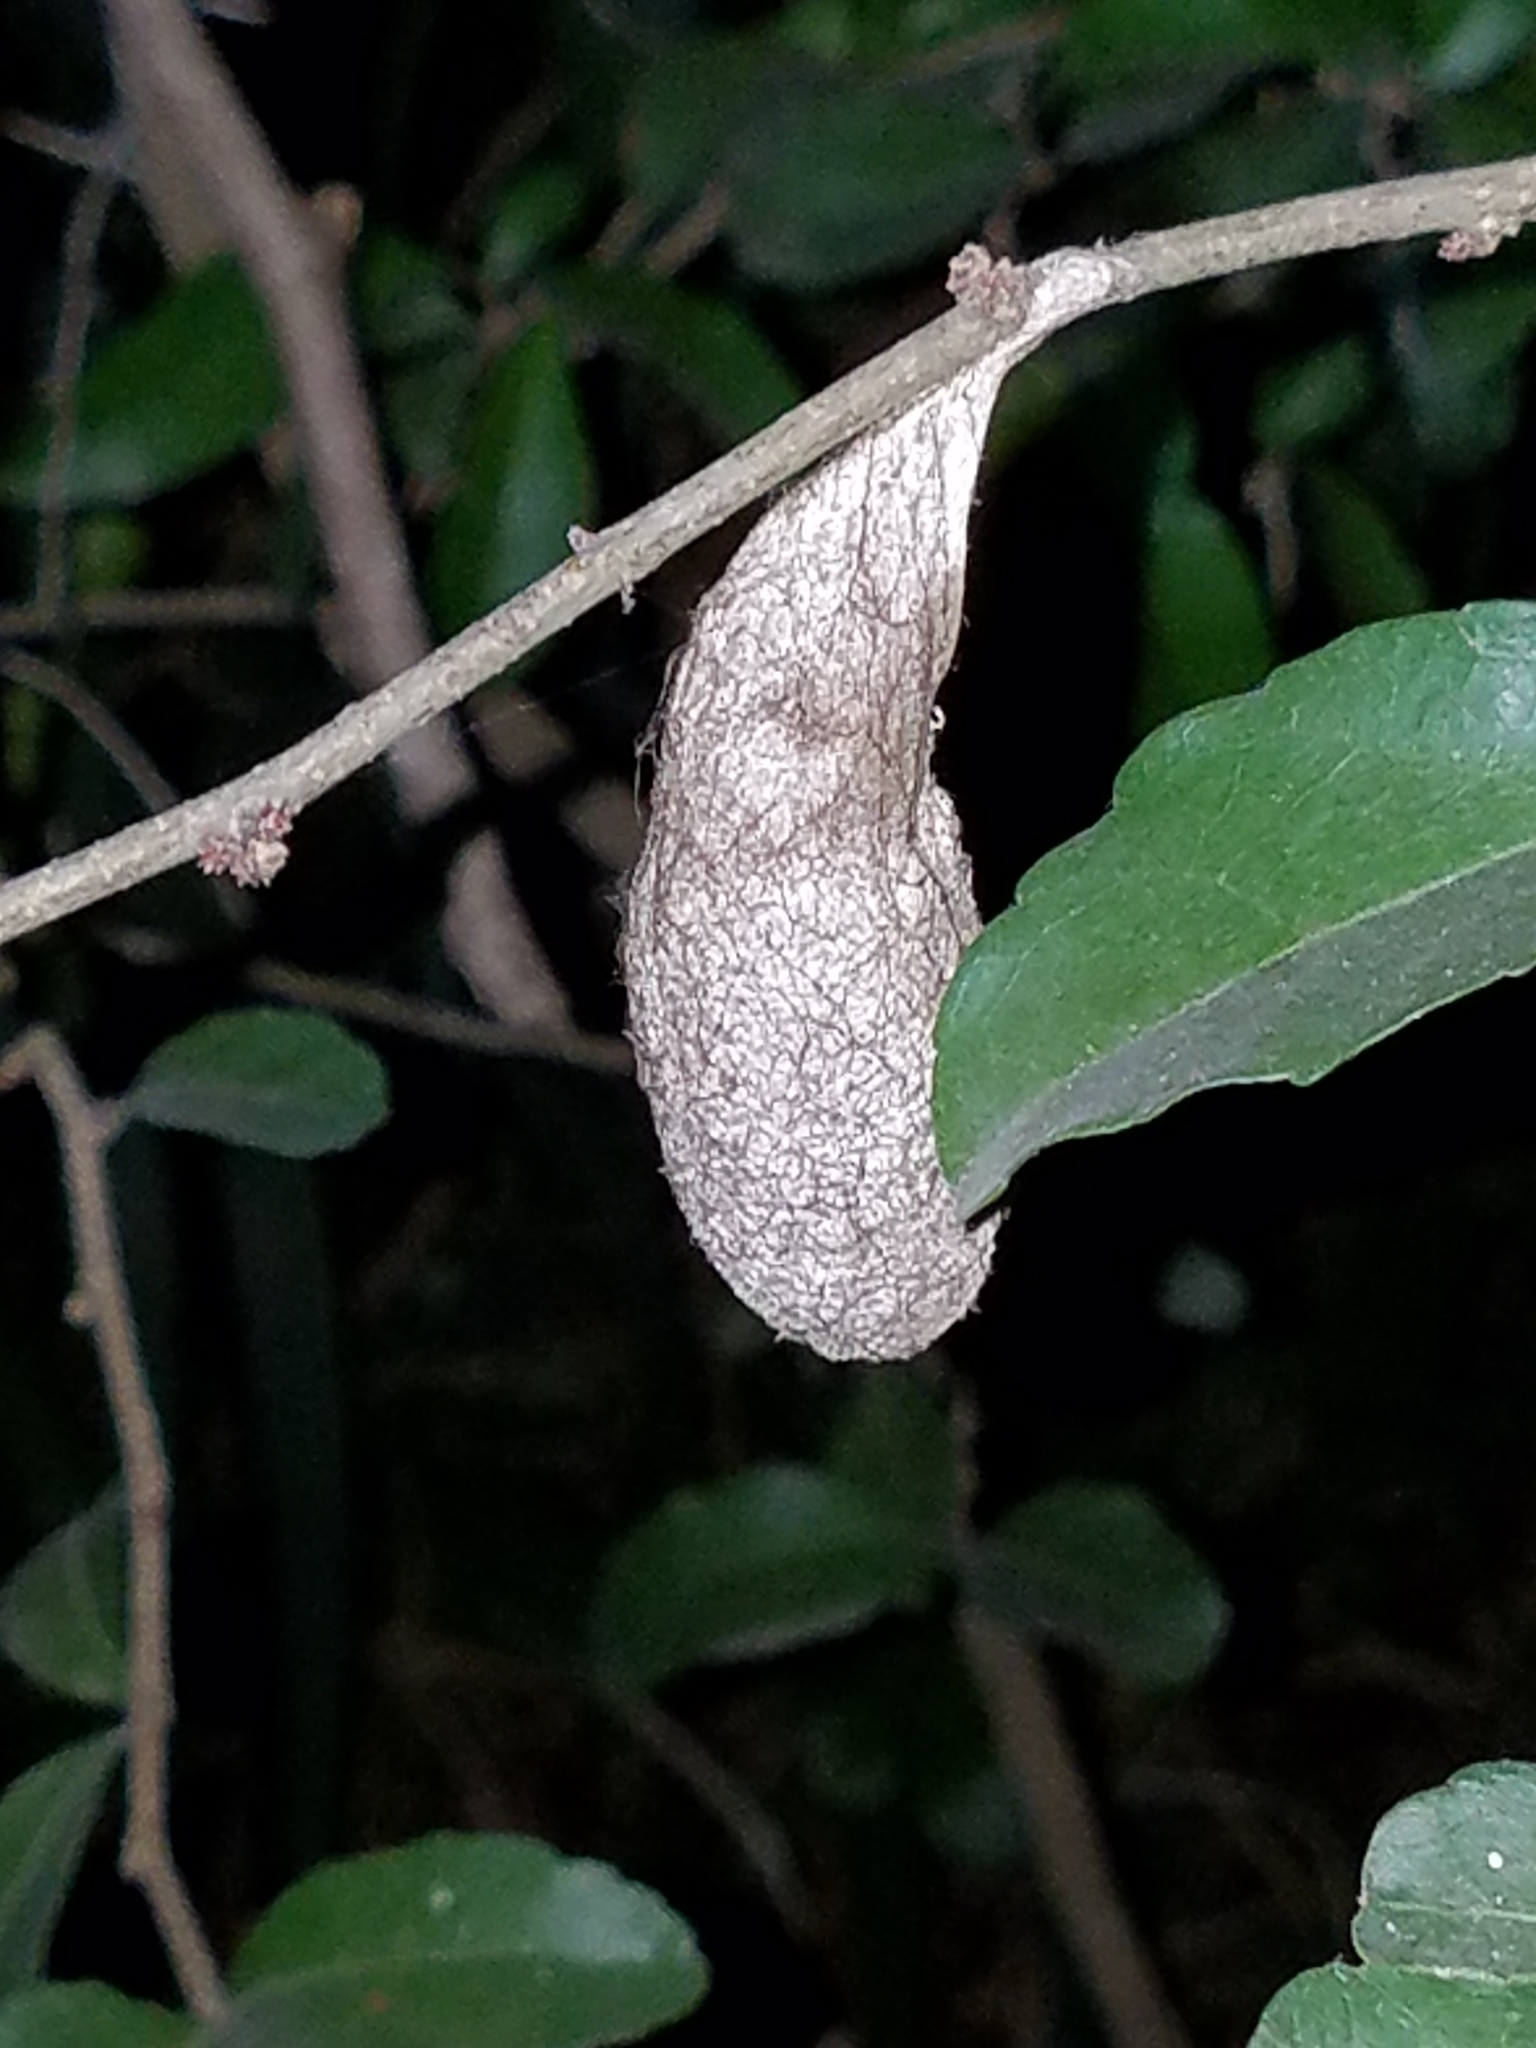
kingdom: Animalia
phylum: Arthropoda
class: Insecta
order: Lepidoptera
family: Saturniidae
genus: Rothschildia
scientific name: Rothschildia lebeau
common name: Lebeau's rothschildia
